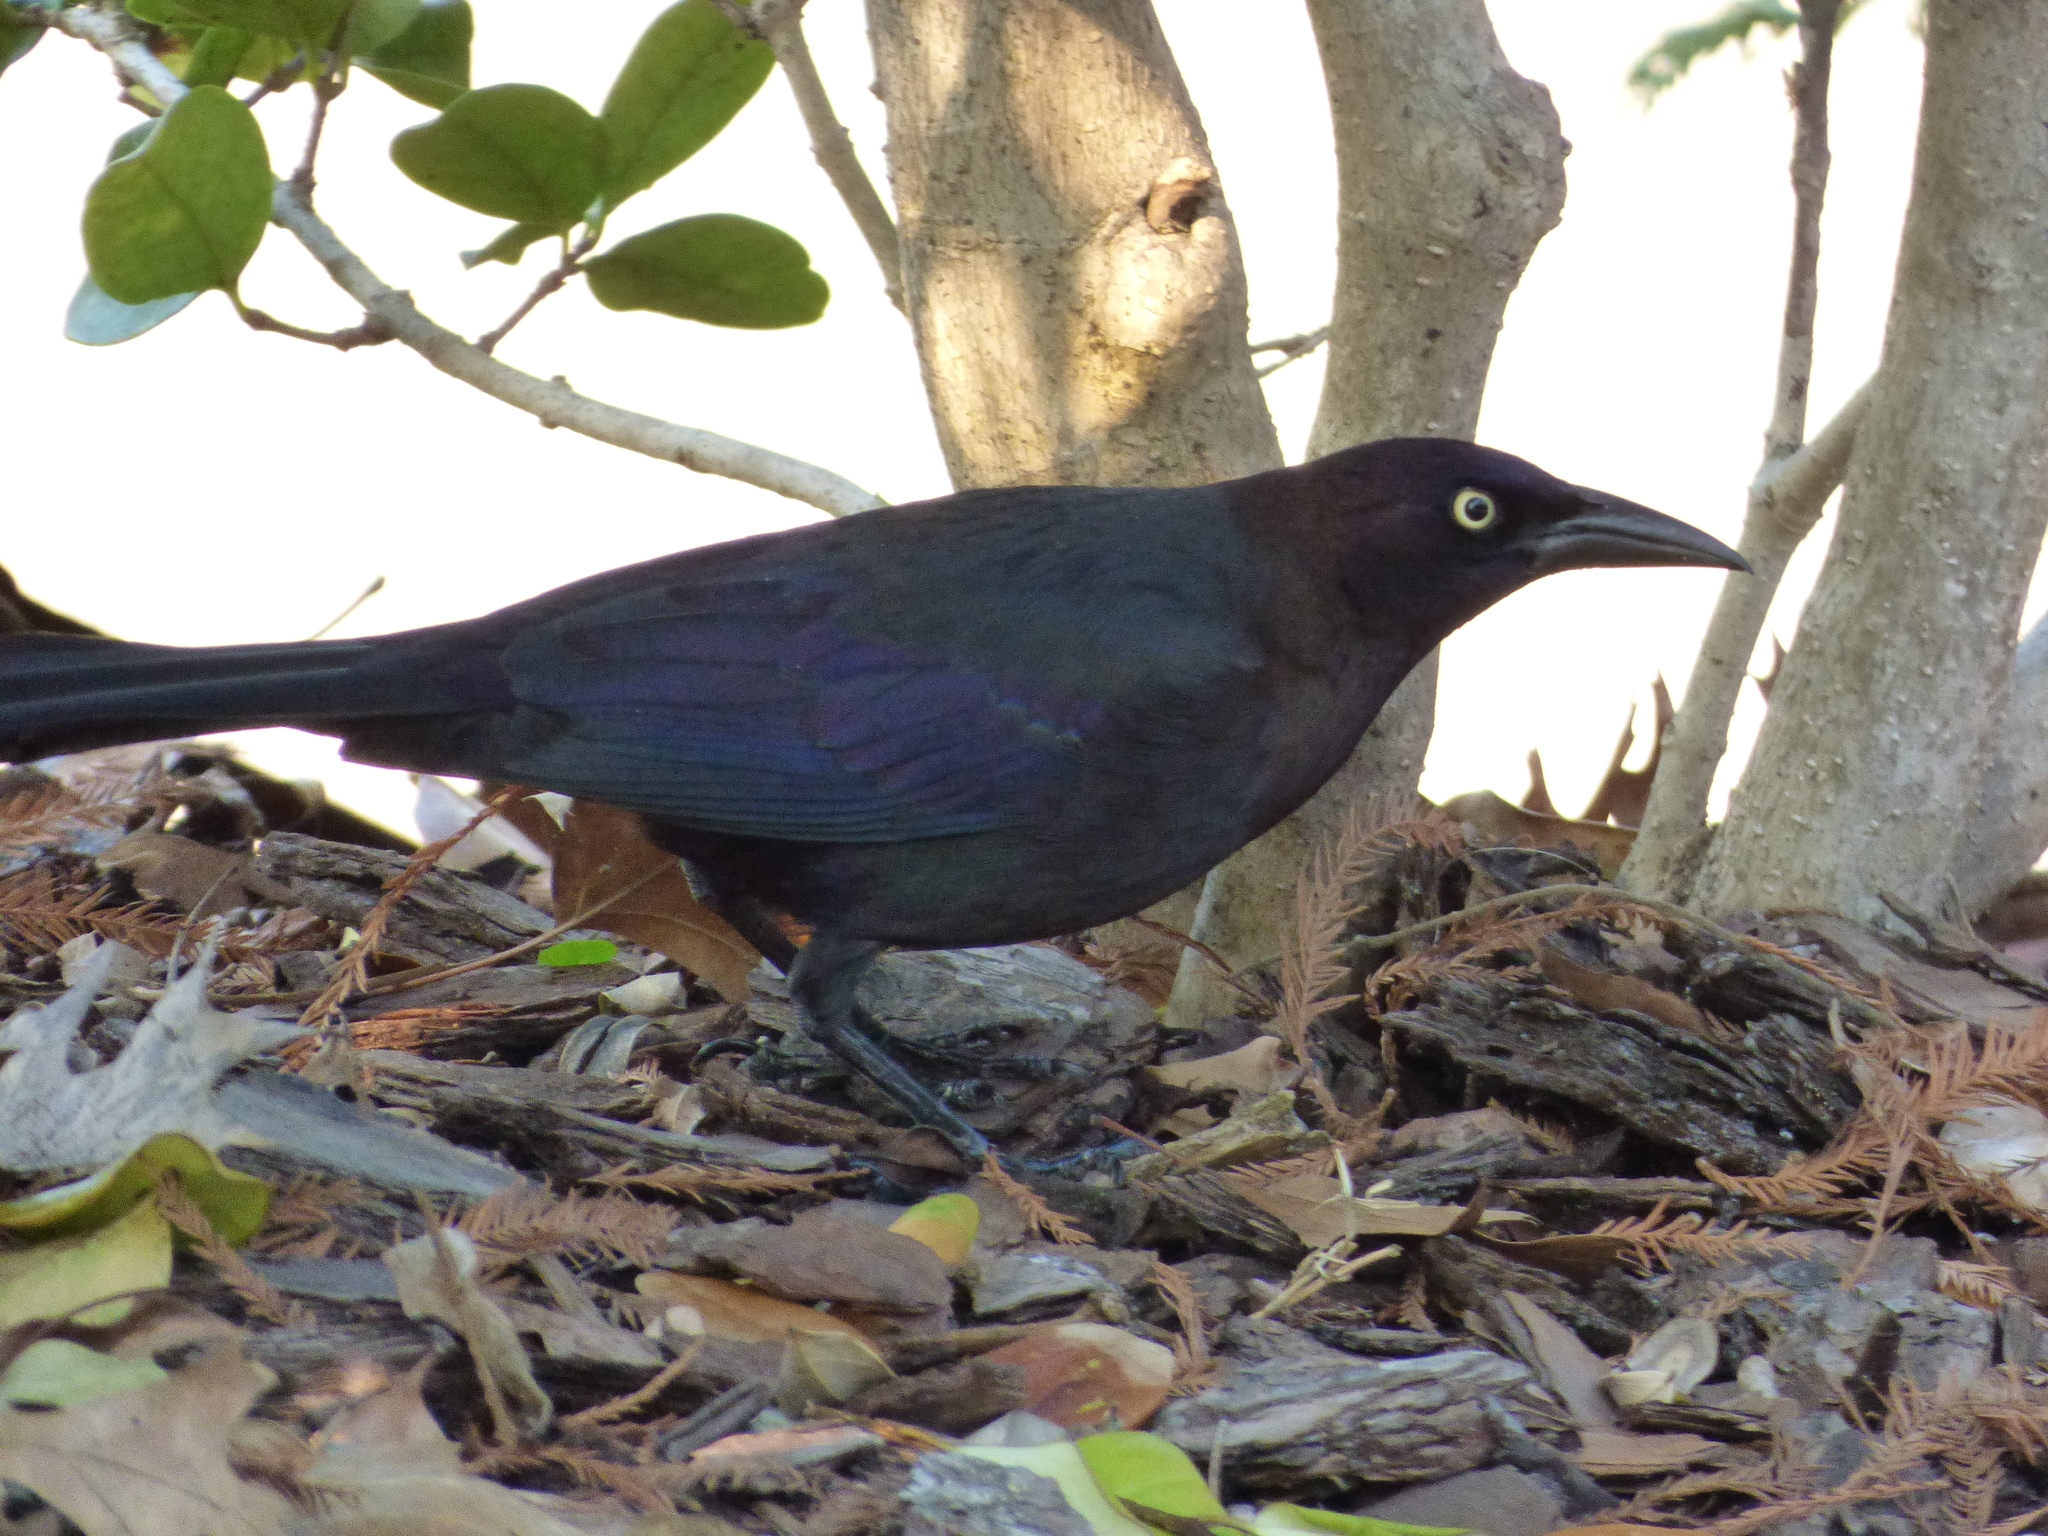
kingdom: Animalia
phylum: Chordata
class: Aves
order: Passeriformes
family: Icteridae
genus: Quiscalus
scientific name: Quiscalus quiscula
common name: Common grackle
